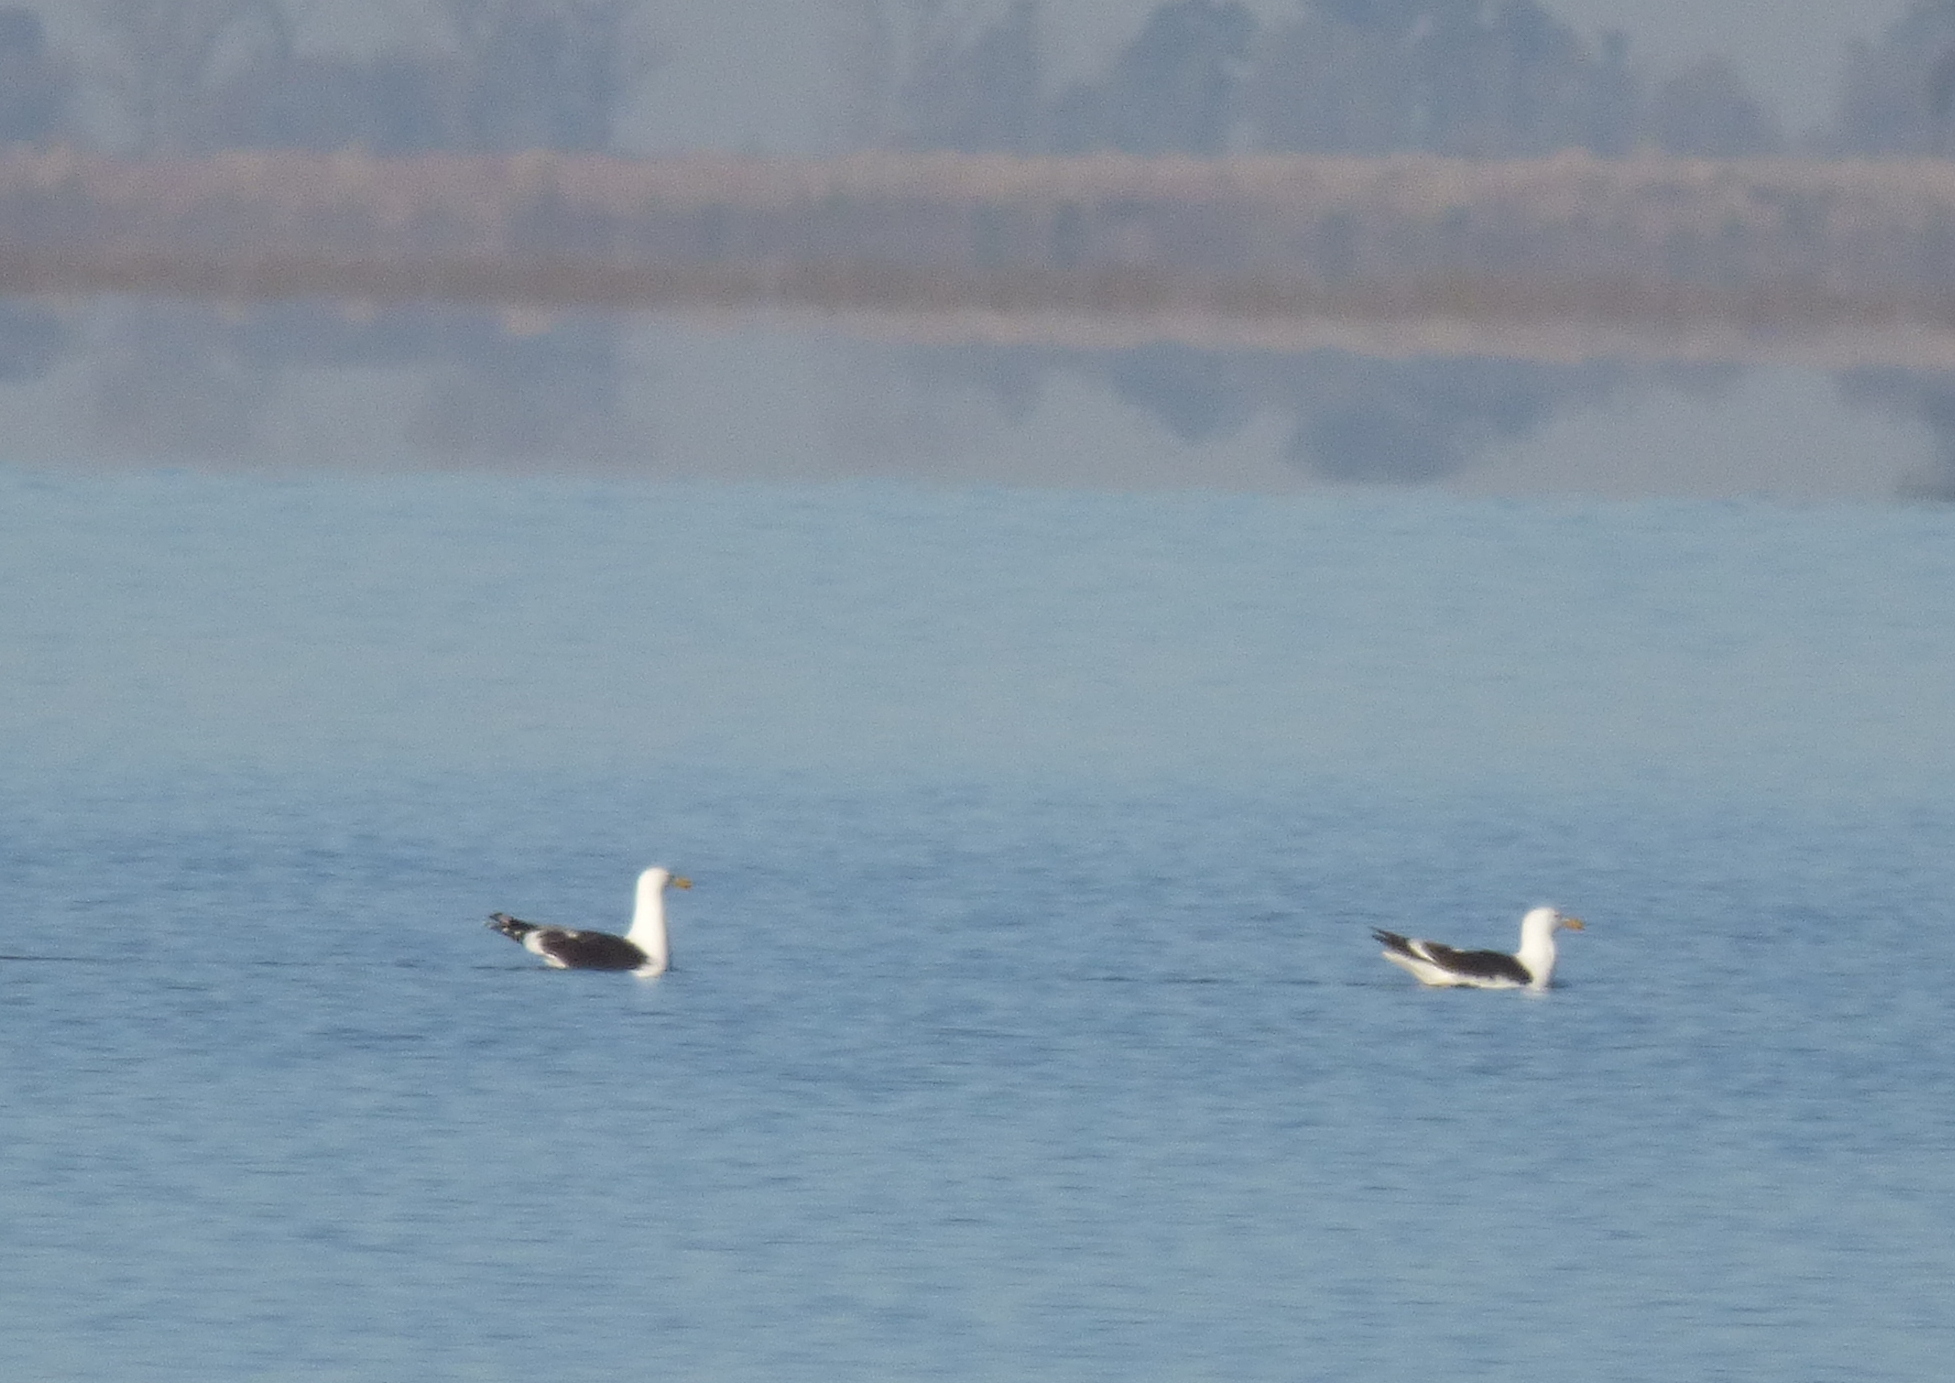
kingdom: Animalia
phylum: Chordata
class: Aves
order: Charadriiformes
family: Laridae
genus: Larus
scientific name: Larus dominicanus
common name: Kelp gull
